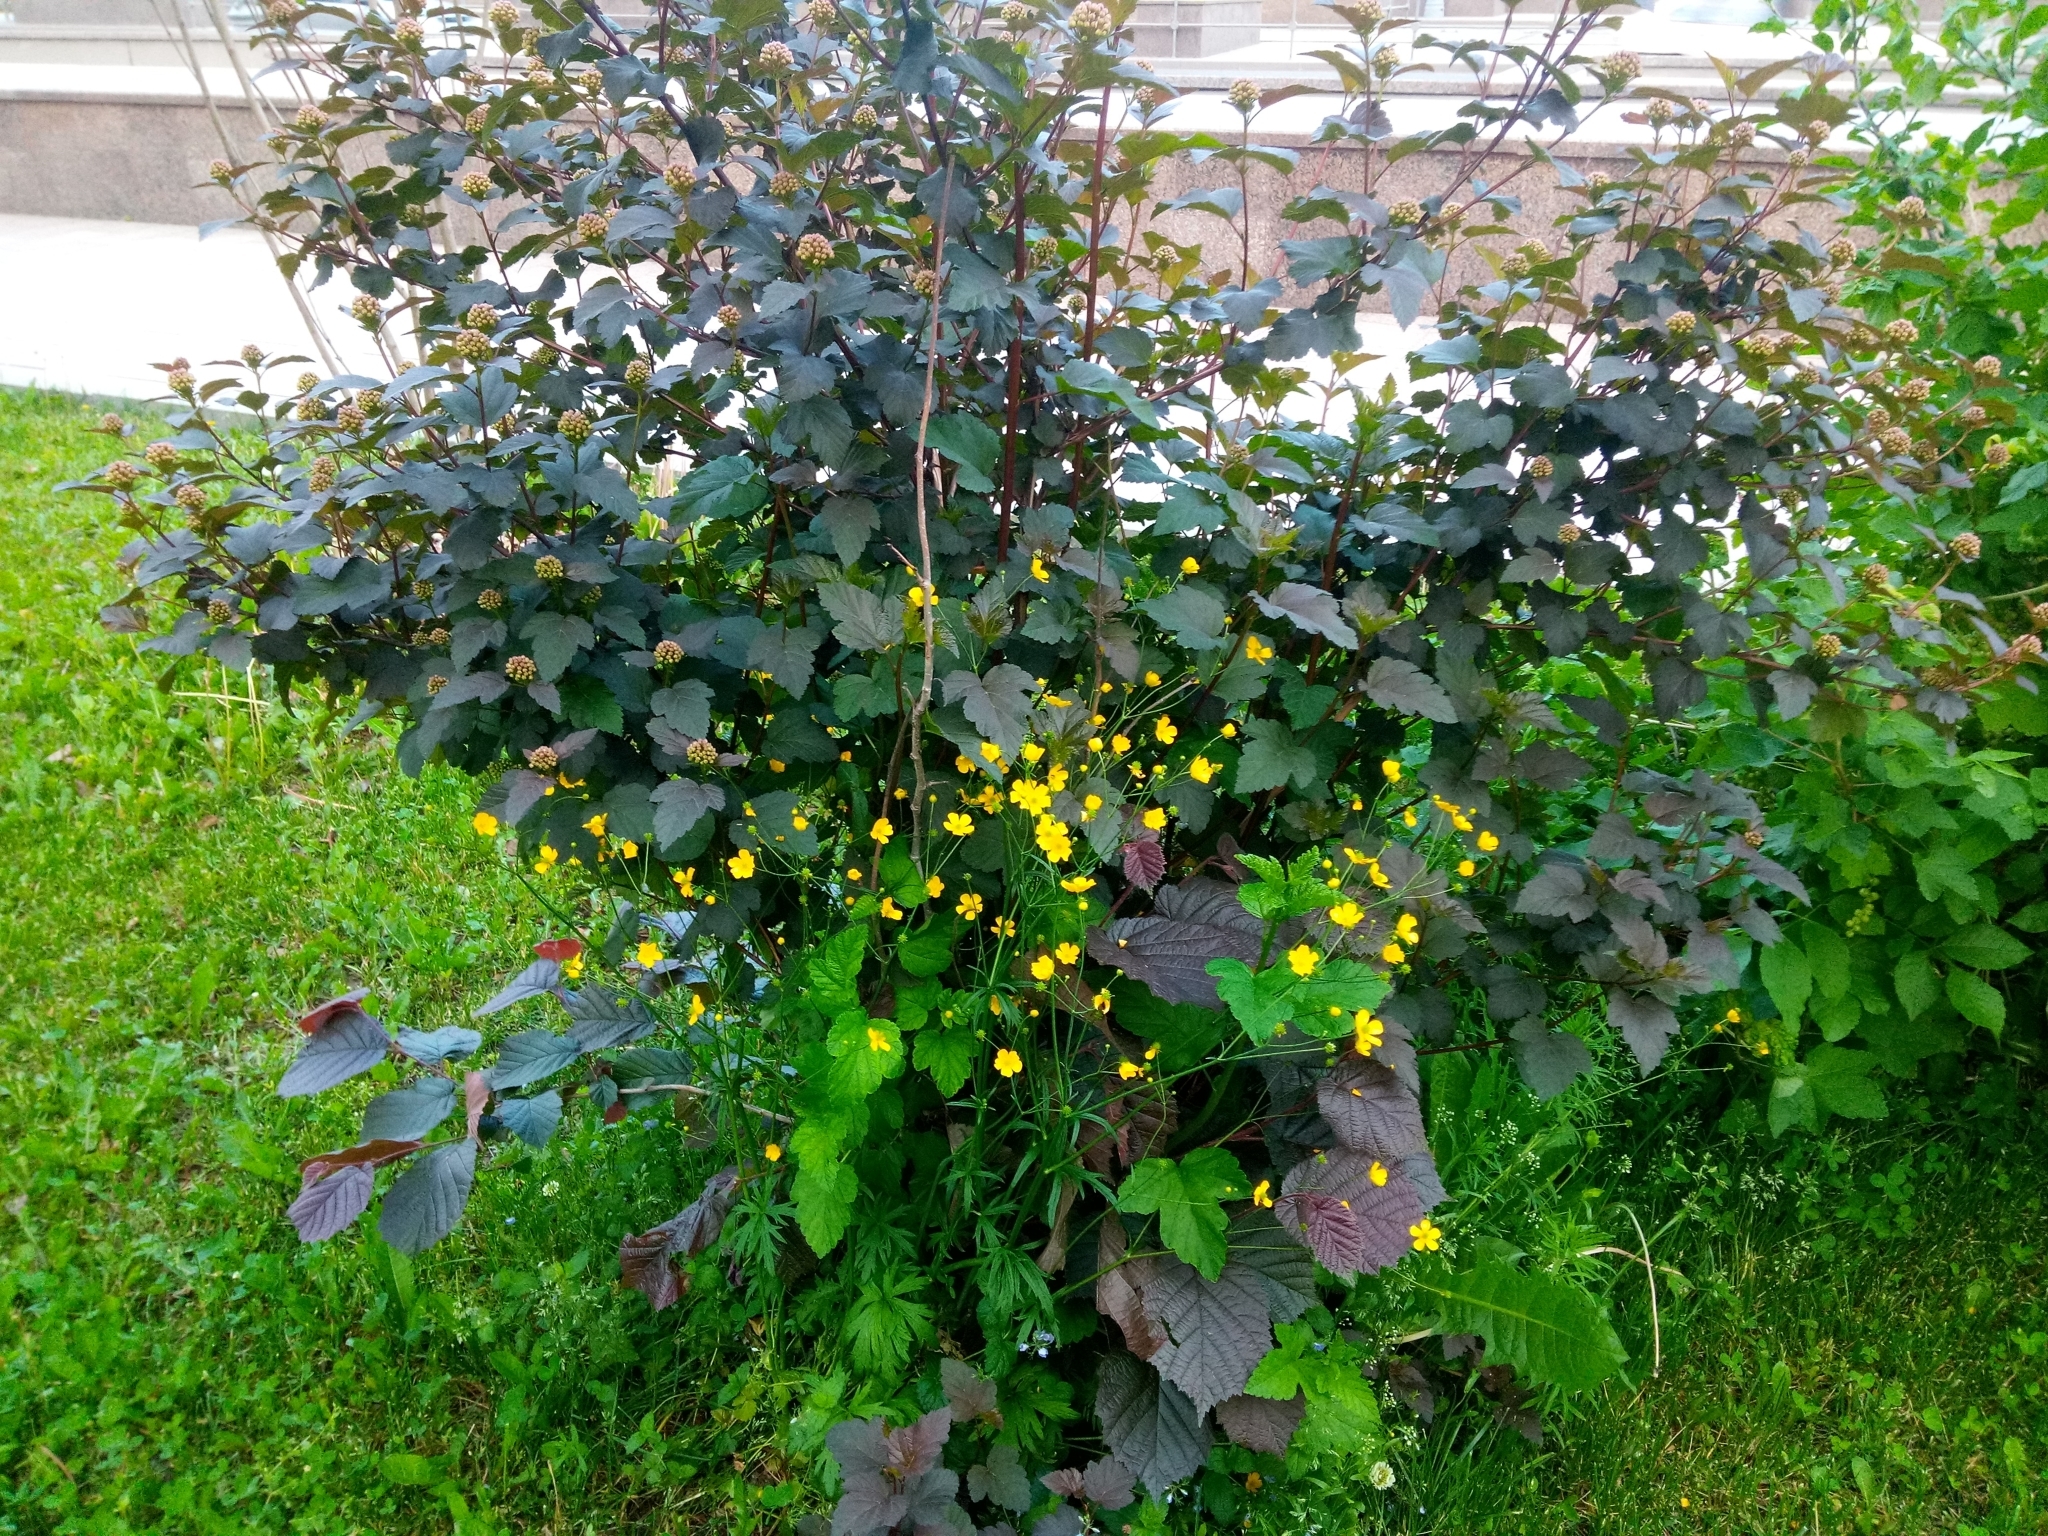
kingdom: Plantae
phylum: Tracheophyta
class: Magnoliopsida
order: Ranunculales
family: Ranunculaceae
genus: Ranunculus
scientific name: Ranunculus acris
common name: Meadow buttercup
